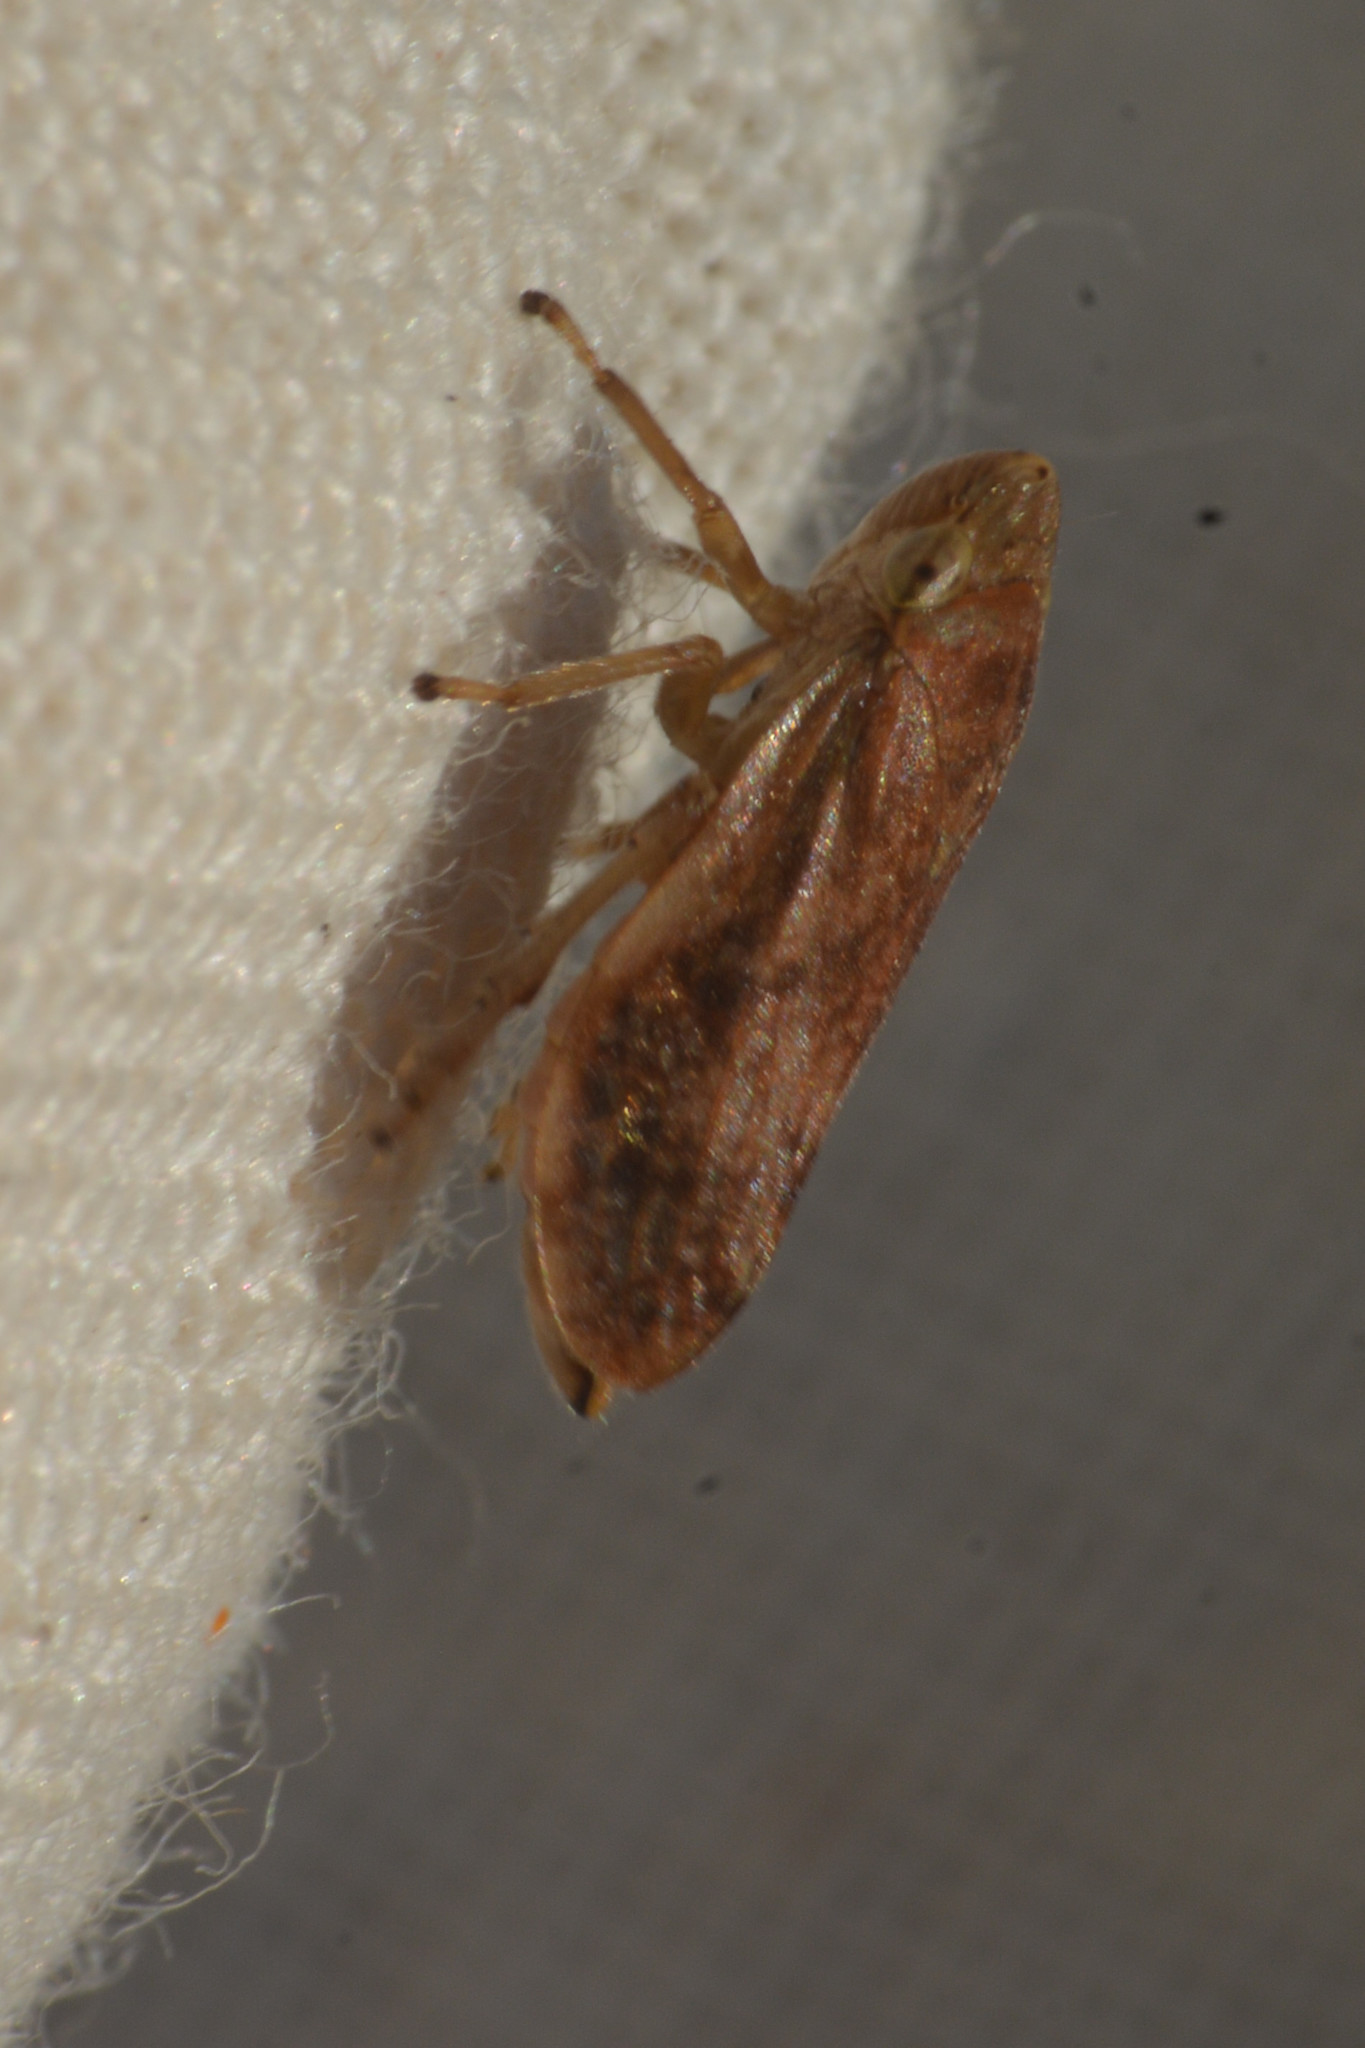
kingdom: Animalia
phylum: Arthropoda
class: Insecta
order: Hemiptera
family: Aphrophoridae
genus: Philaenus
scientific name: Philaenus spumarius
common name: Meadow spittlebug
